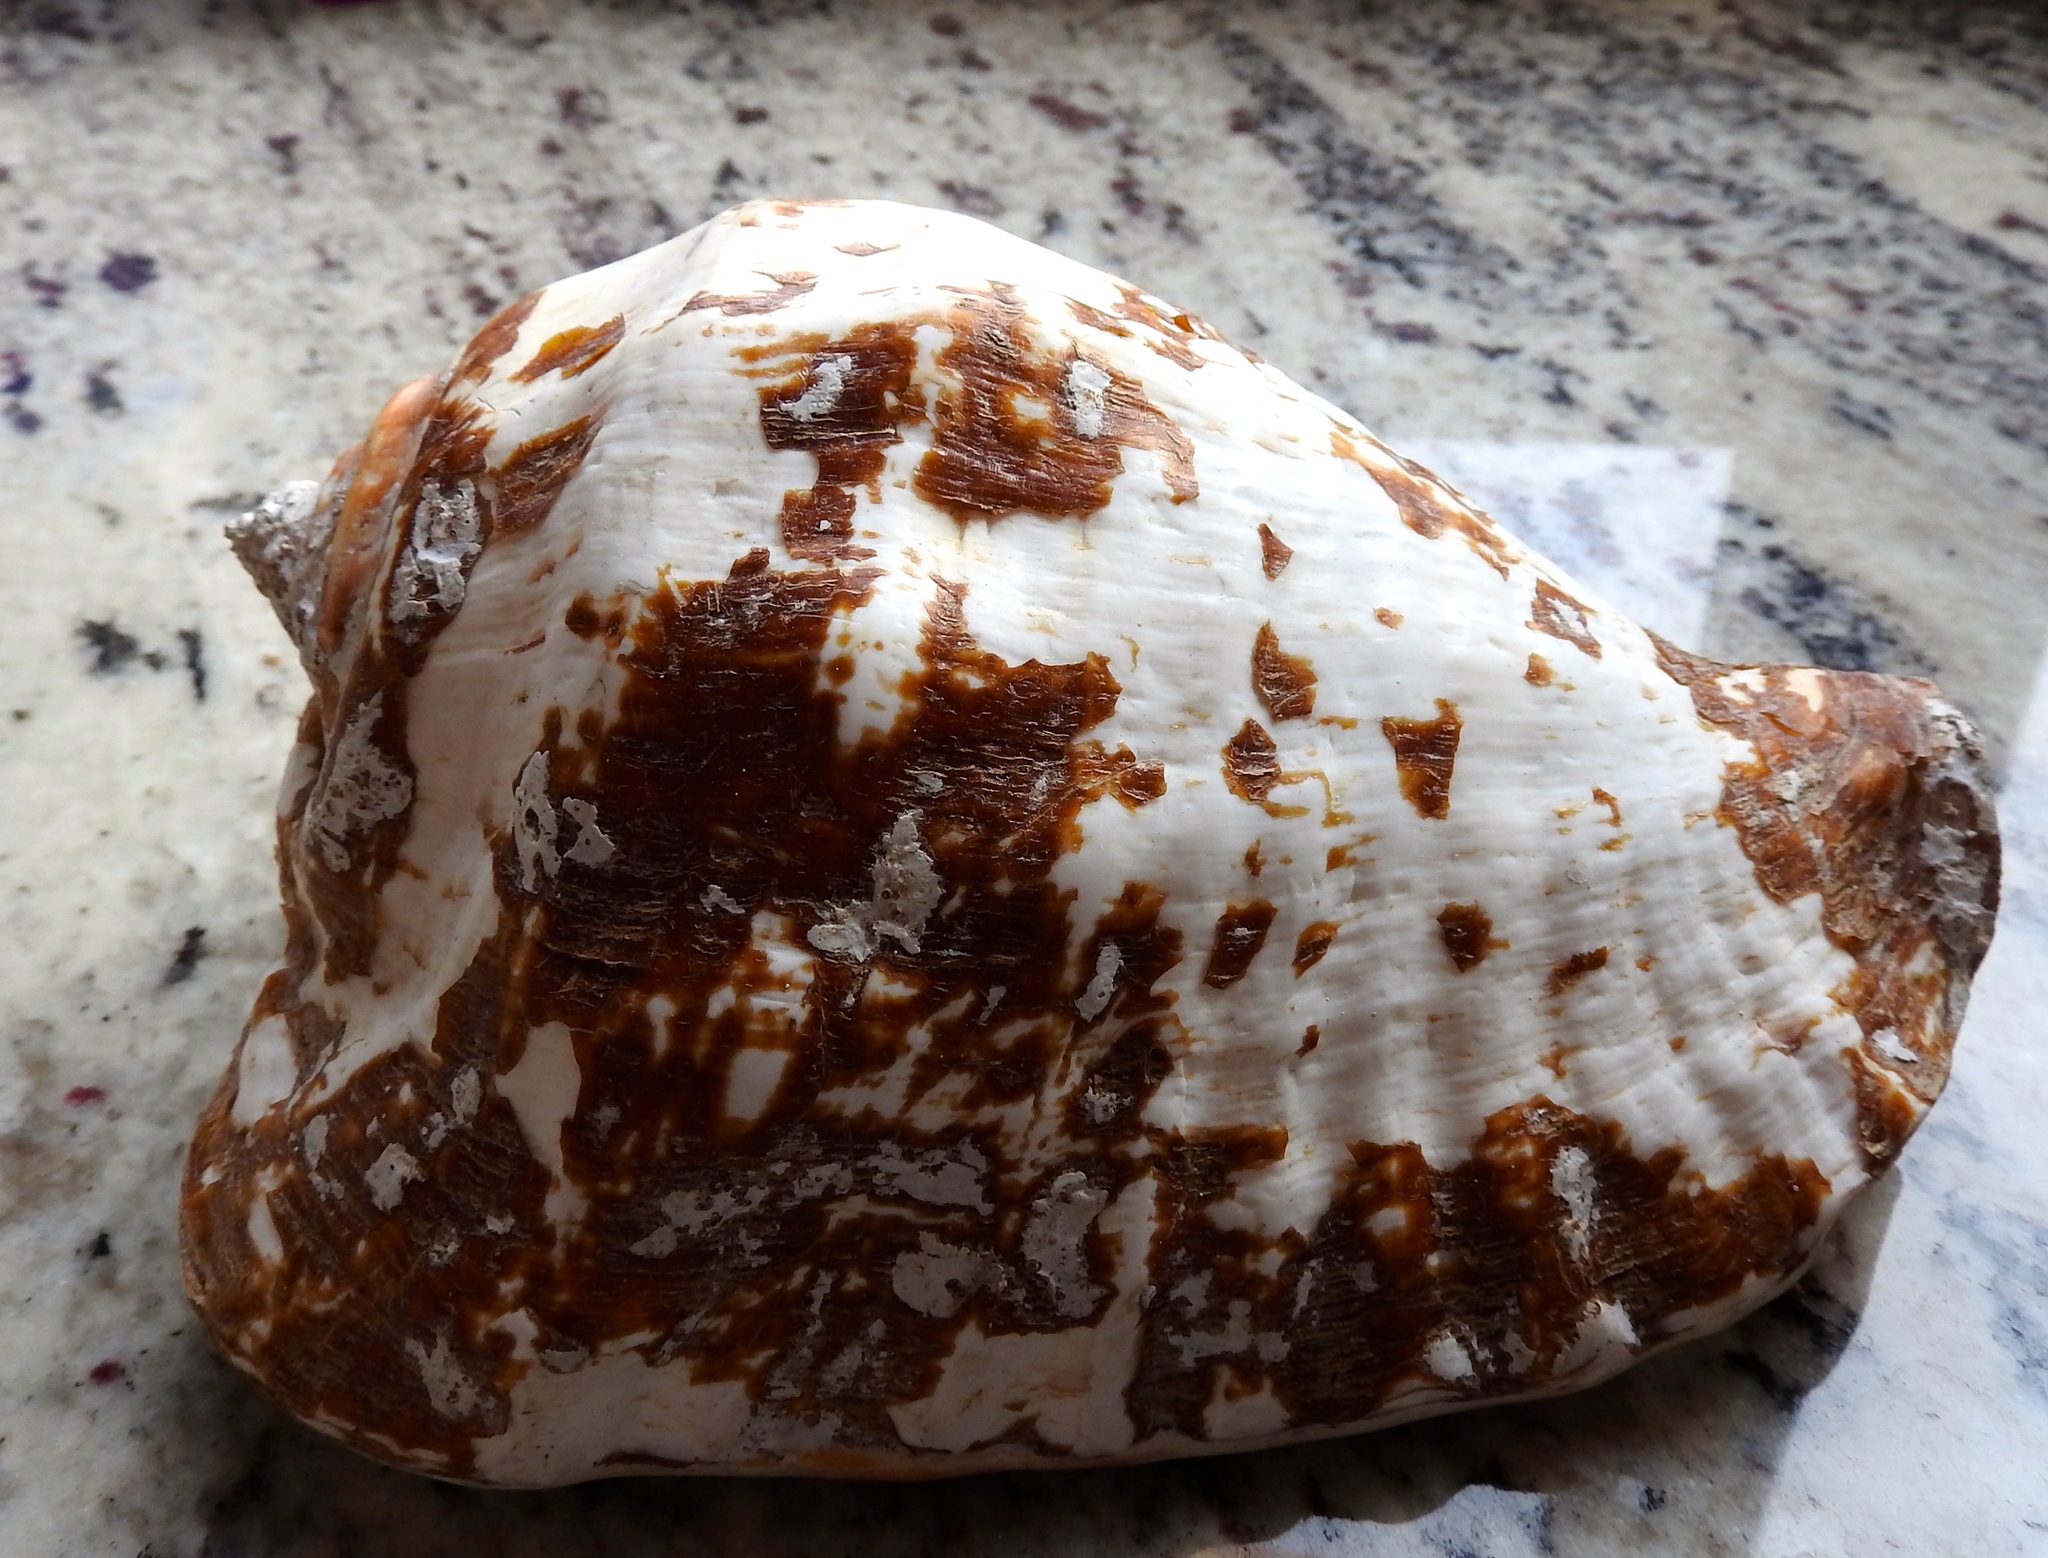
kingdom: Animalia
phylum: Mollusca
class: Gastropoda
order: Littorinimorpha
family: Strombidae
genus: Titanostrombus
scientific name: Titanostrombus galeatus
